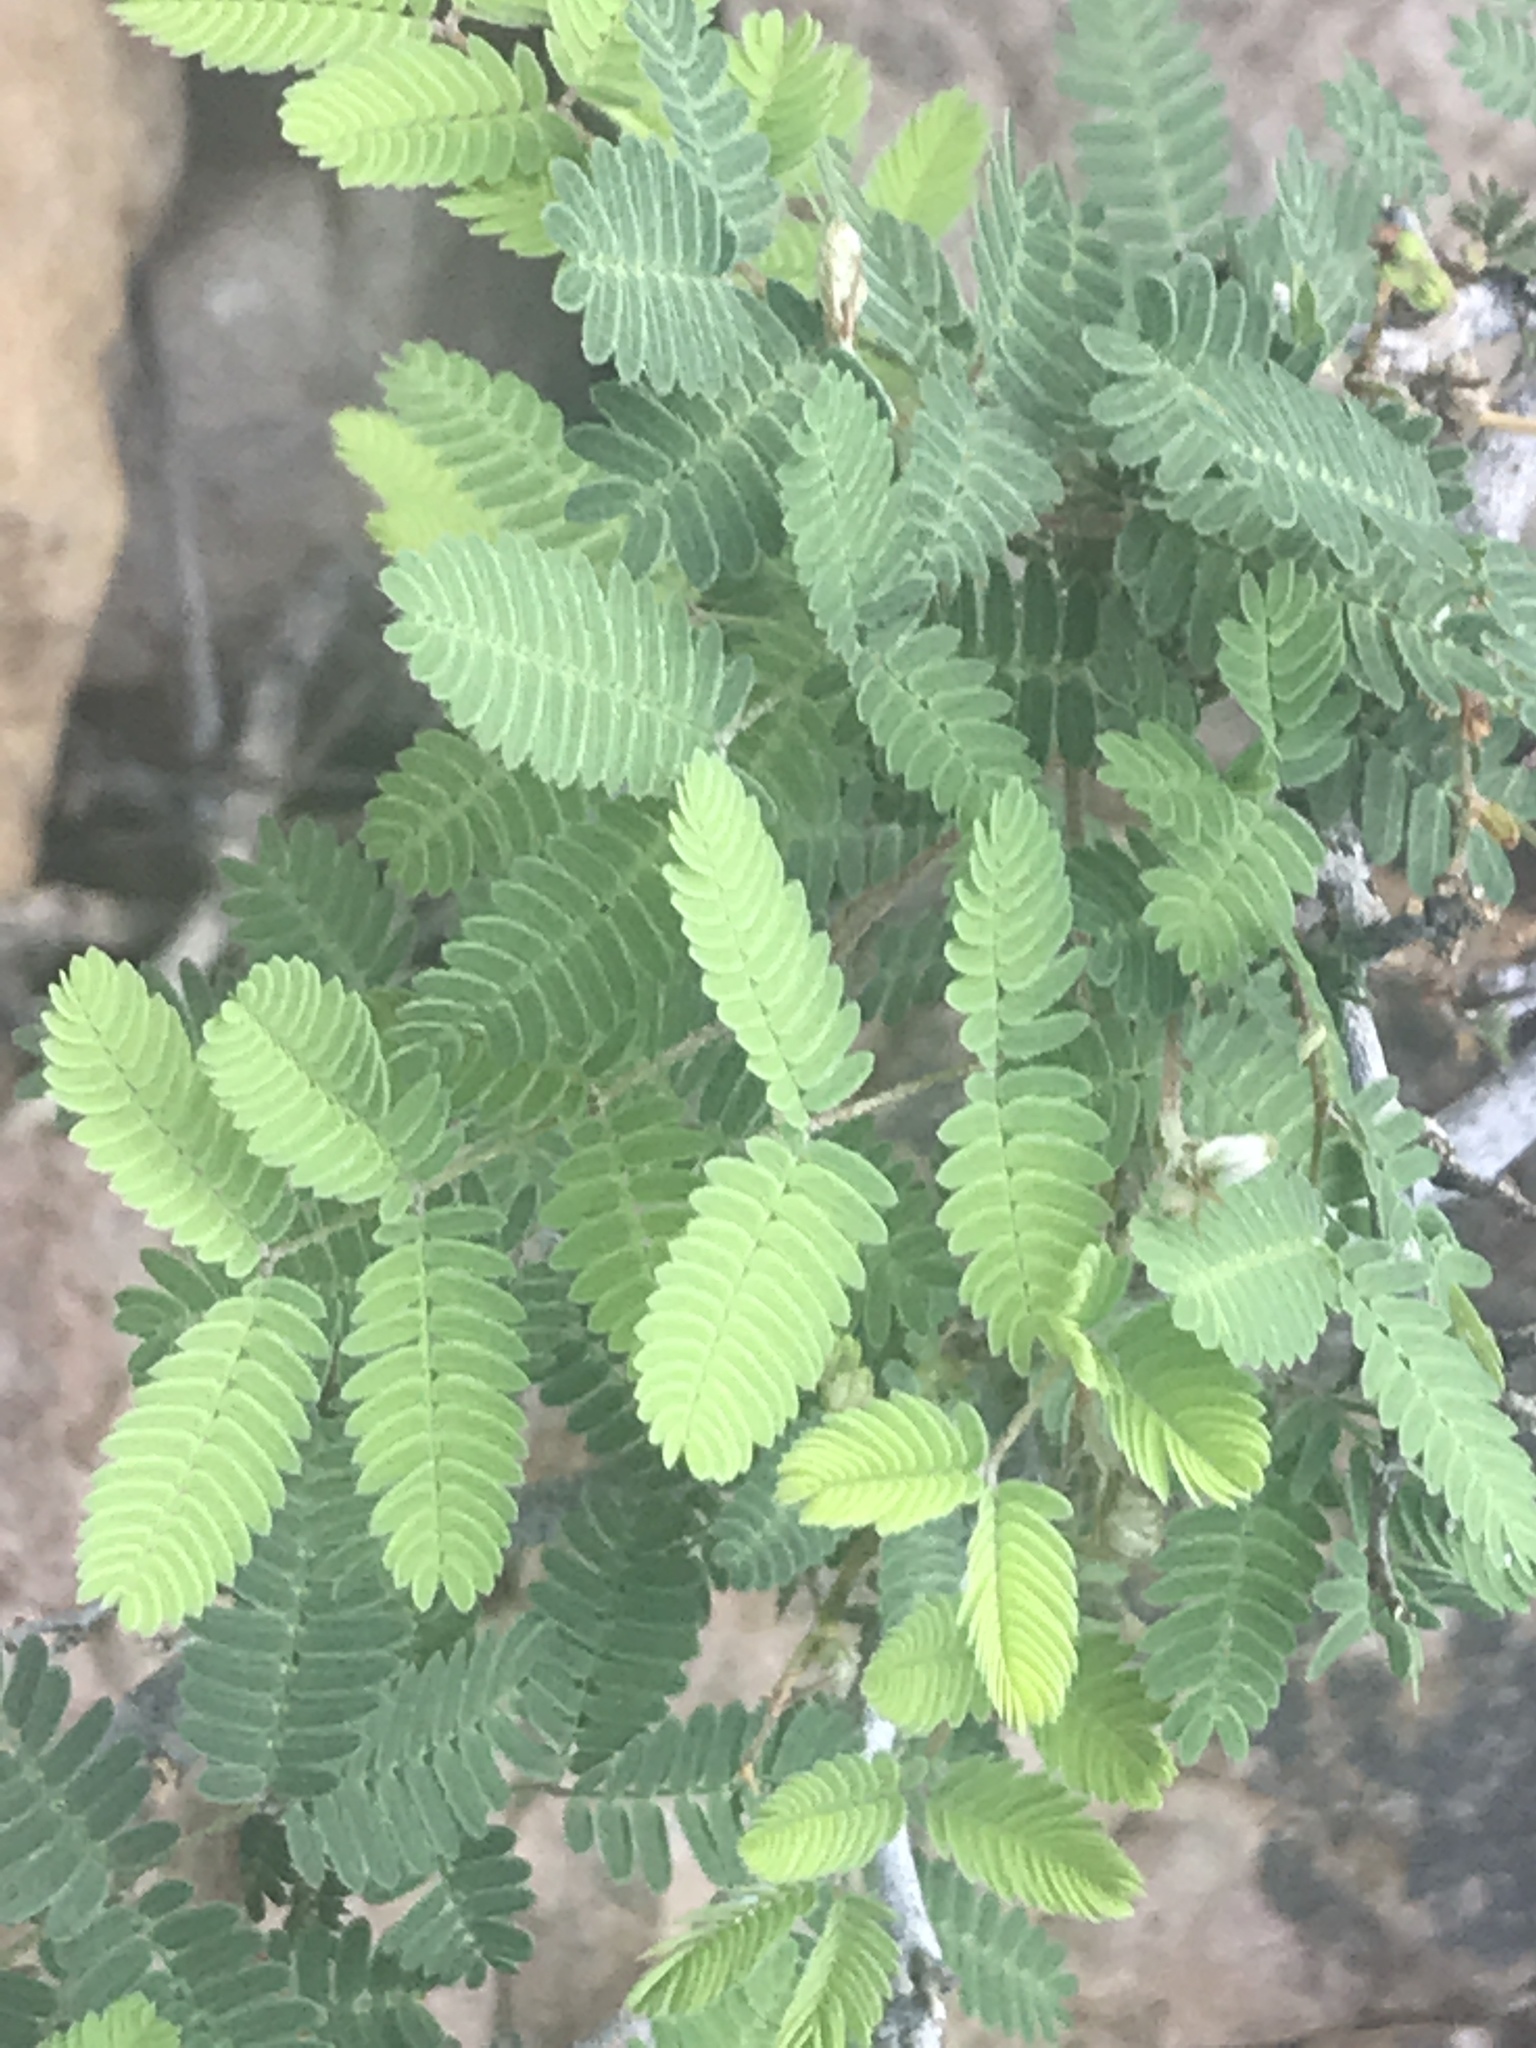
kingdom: Plantae
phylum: Tracheophyta
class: Magnoliopsida
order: Fabales
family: Fabaceae
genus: Calliandra
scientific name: Calliandra eriophylla
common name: Fairy-duster
